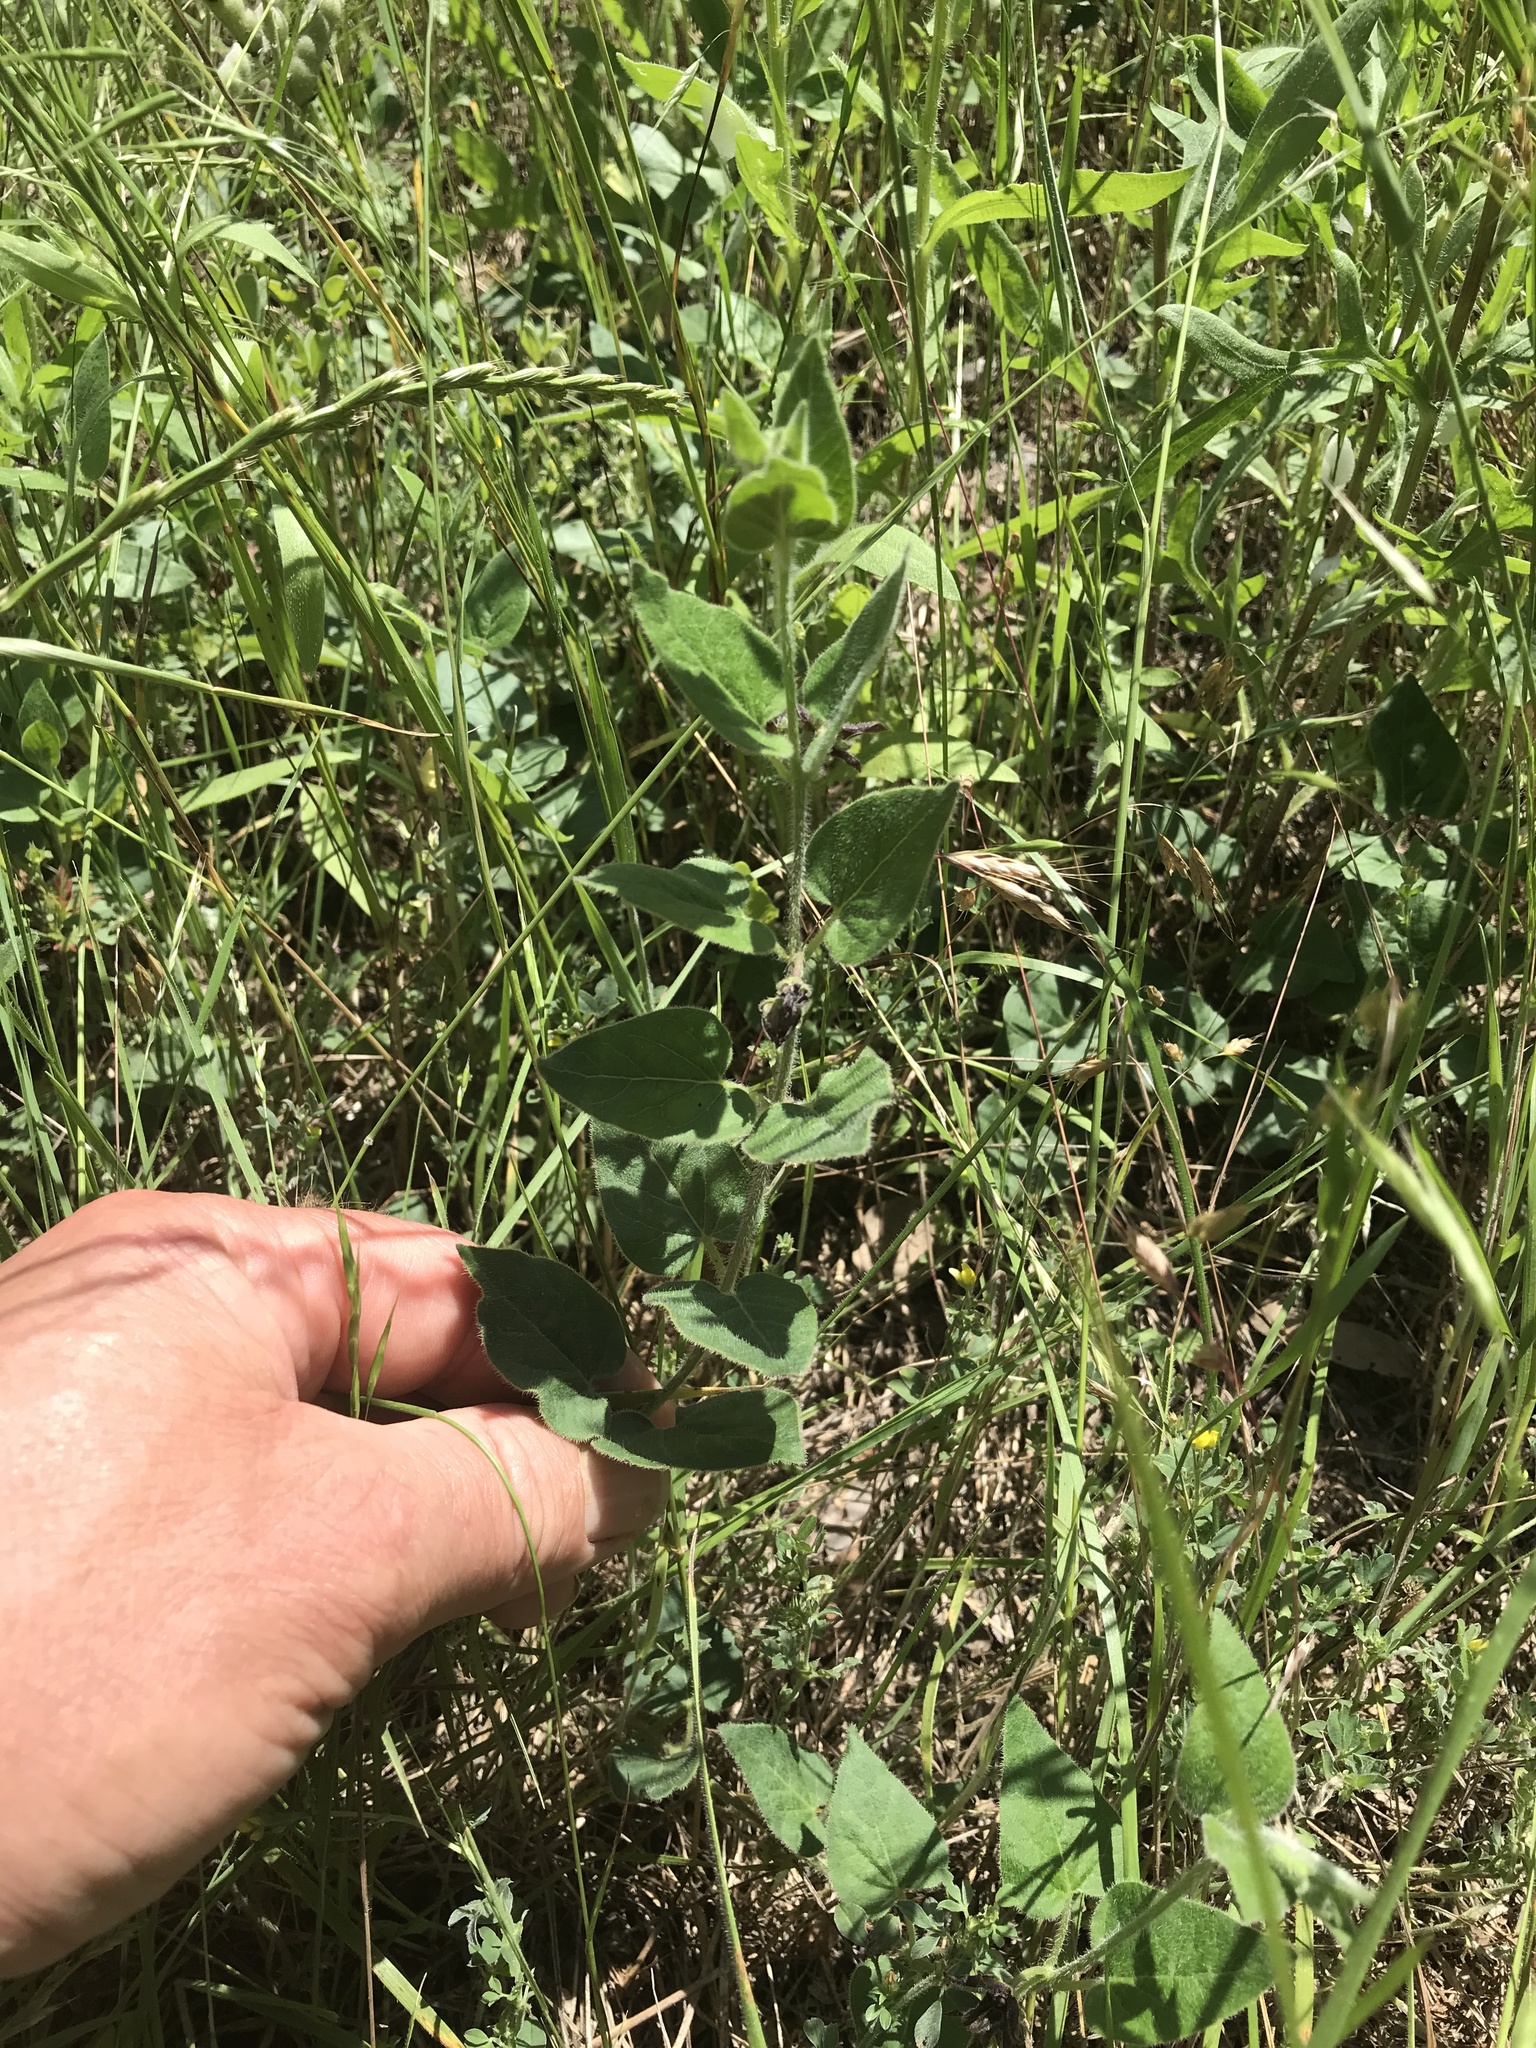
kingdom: Plantae
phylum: Tracheophyta
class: Magnoliopsida
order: Gentianales
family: Apocynaceae
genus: Chthamalia
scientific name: Chthamalia biflora
